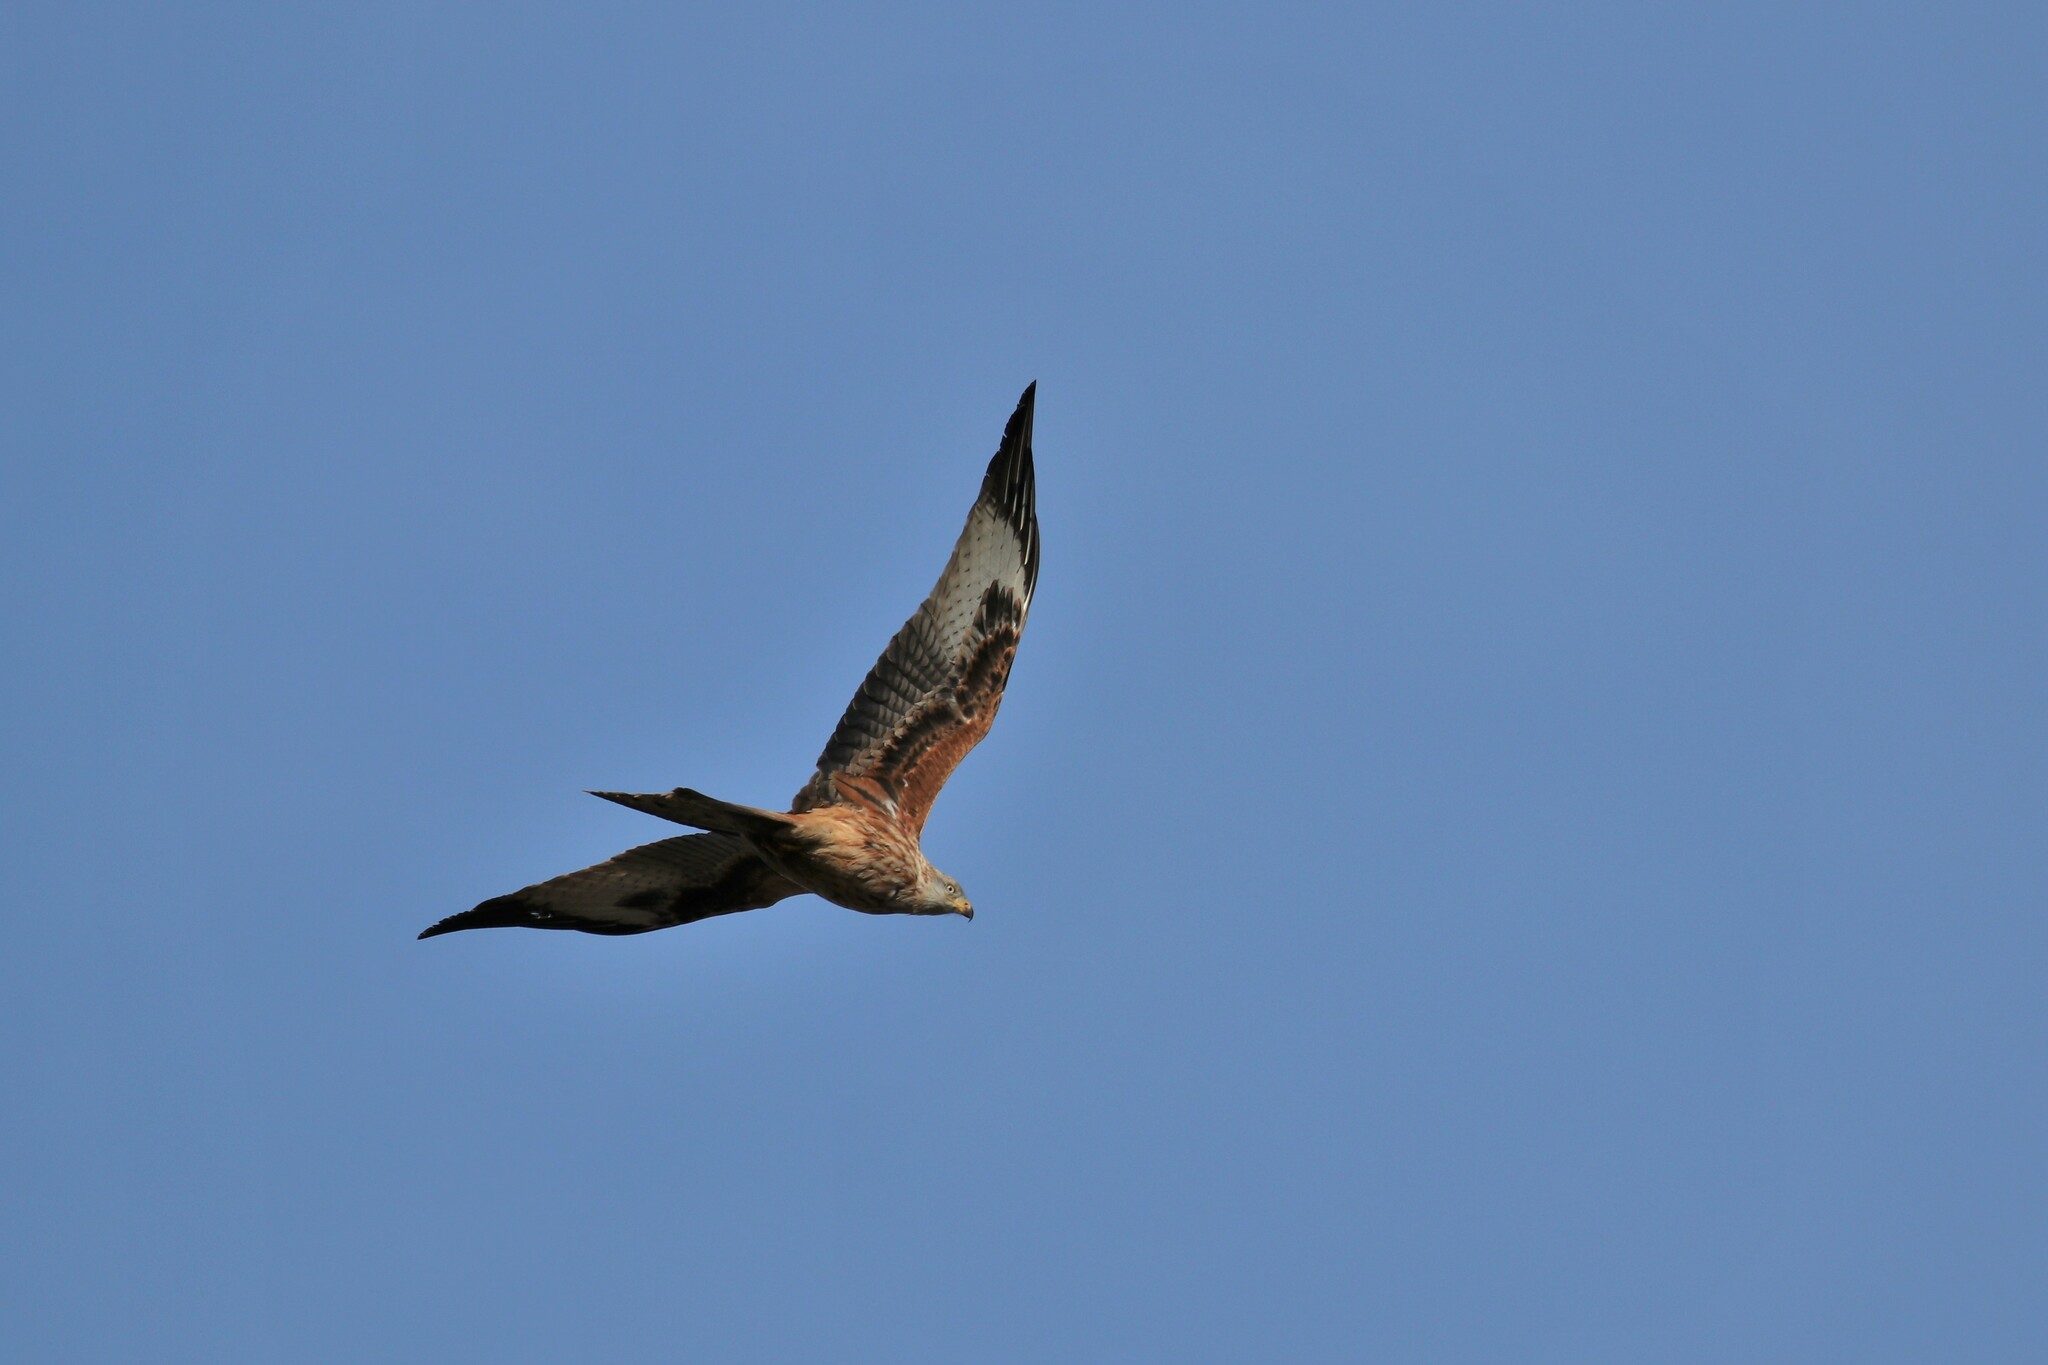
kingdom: Animalia
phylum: Chordata
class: Aves
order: Accipitriformes
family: Accipitridae
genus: Milvus
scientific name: Milvus milvus
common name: Red kite
